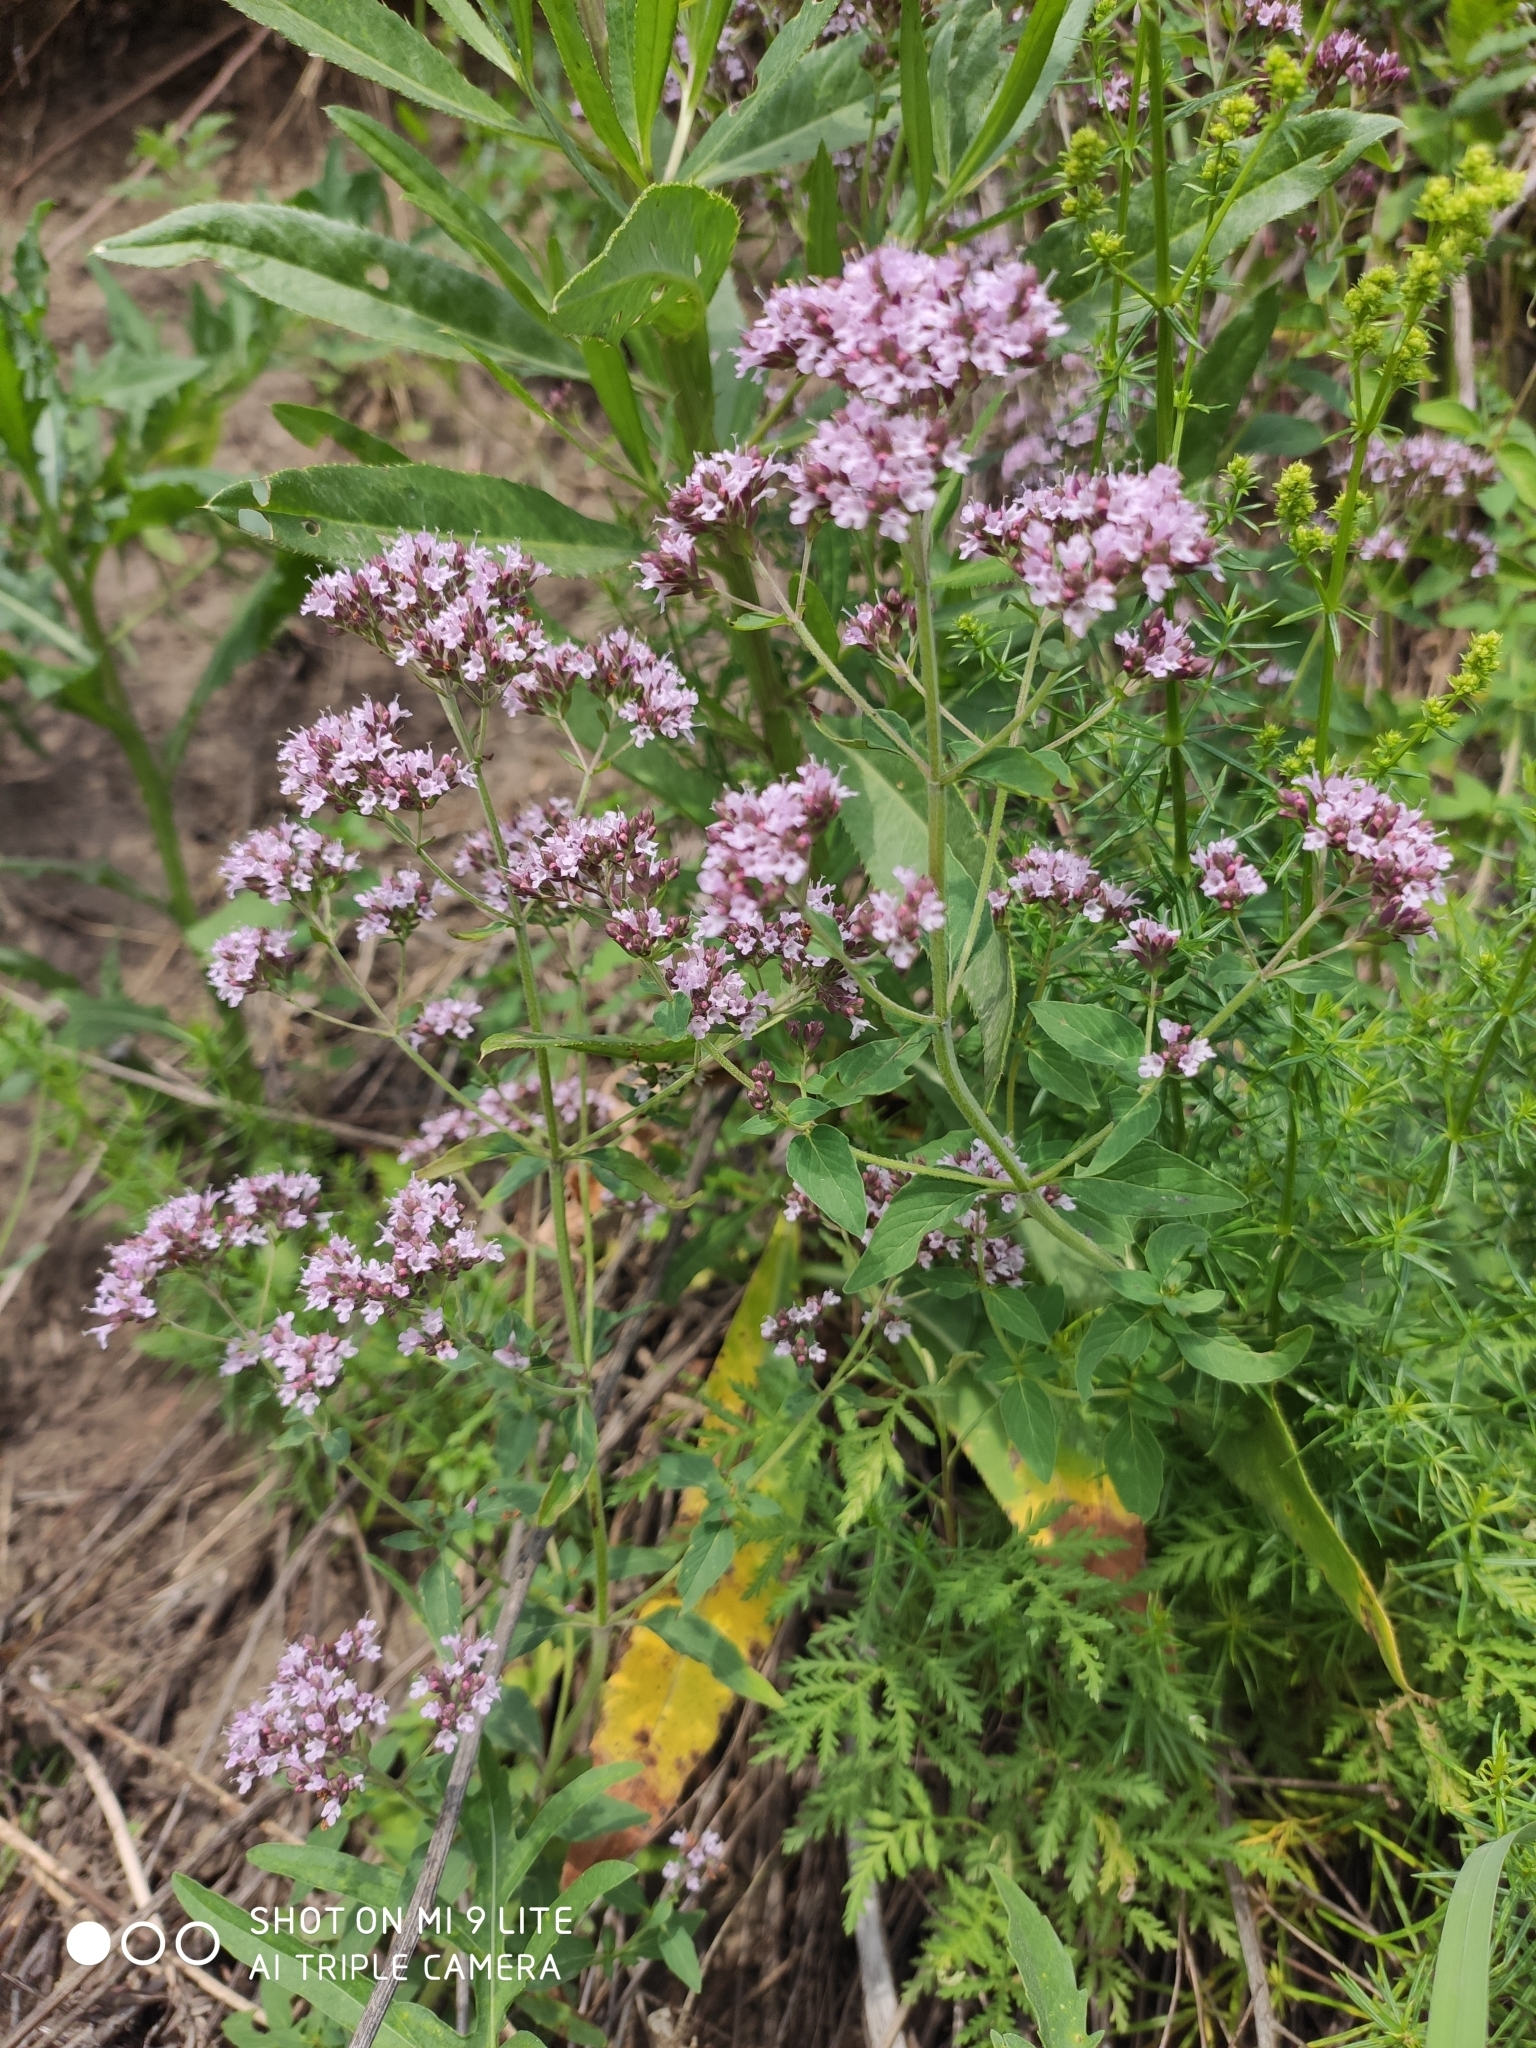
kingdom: Plantae
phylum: Tracheophyta
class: Magnoliopsida
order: Lamiales
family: Lamiaceae
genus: Origanum
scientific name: Origanum vulgare
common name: Wild marjoram
